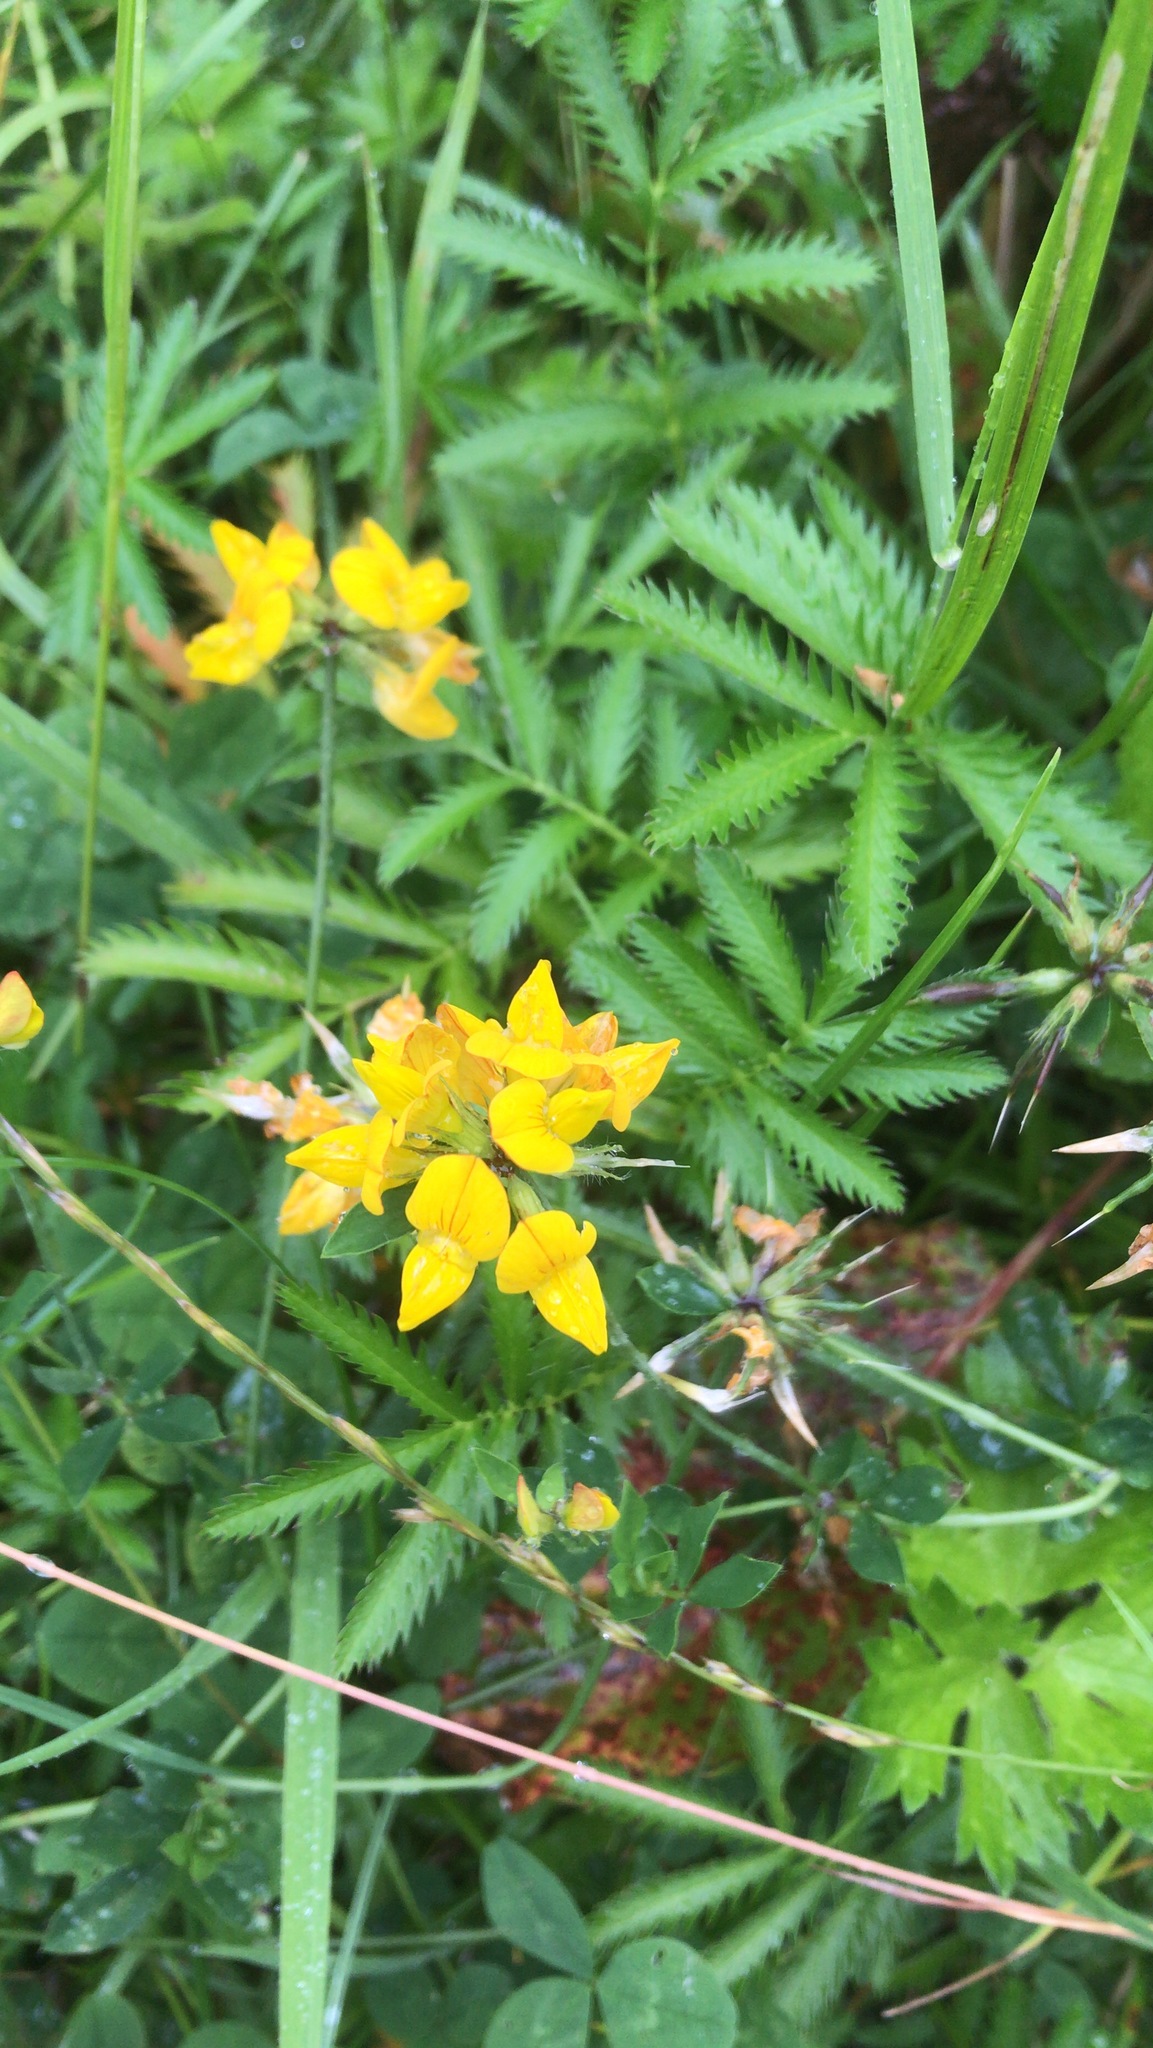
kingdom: Plantae
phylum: Tracheophyta
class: Magnoliopsida
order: Fabales
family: Fabaceae
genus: Lotus
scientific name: Lotus pedunculatus
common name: Greater birdsfoot-trefoil
